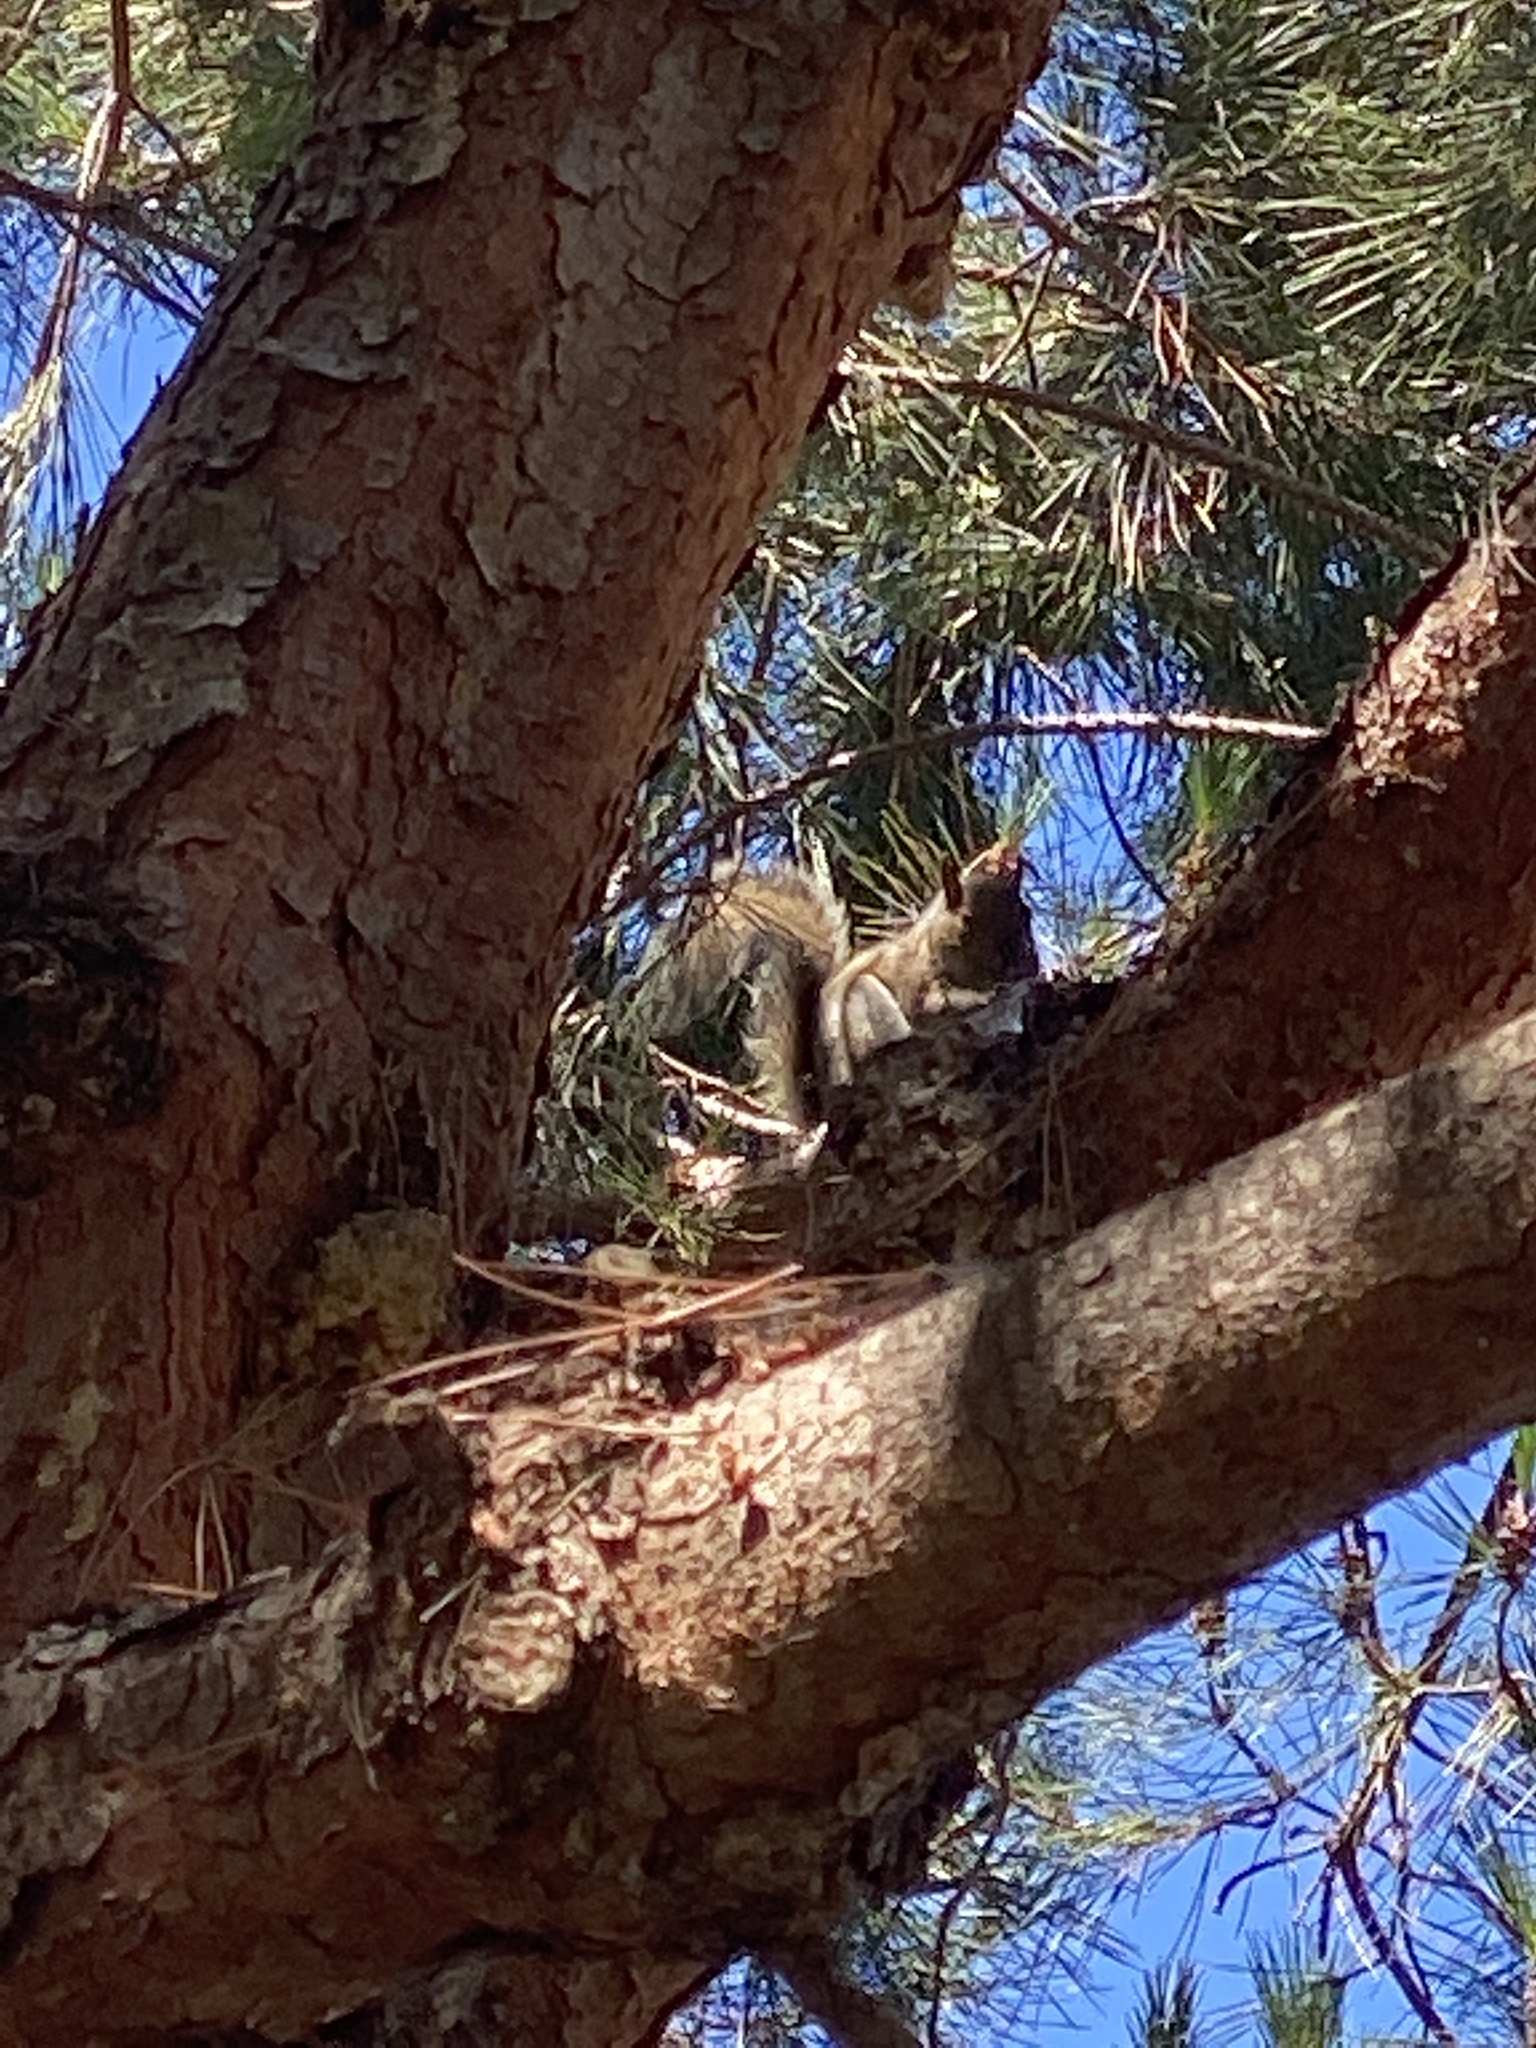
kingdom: Animalia
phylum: Chordata
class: Mammalia
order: Rodentia
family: Sciuridae
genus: Sciurus
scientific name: Sciurus carolinensis
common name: Eastern gray squirrel
